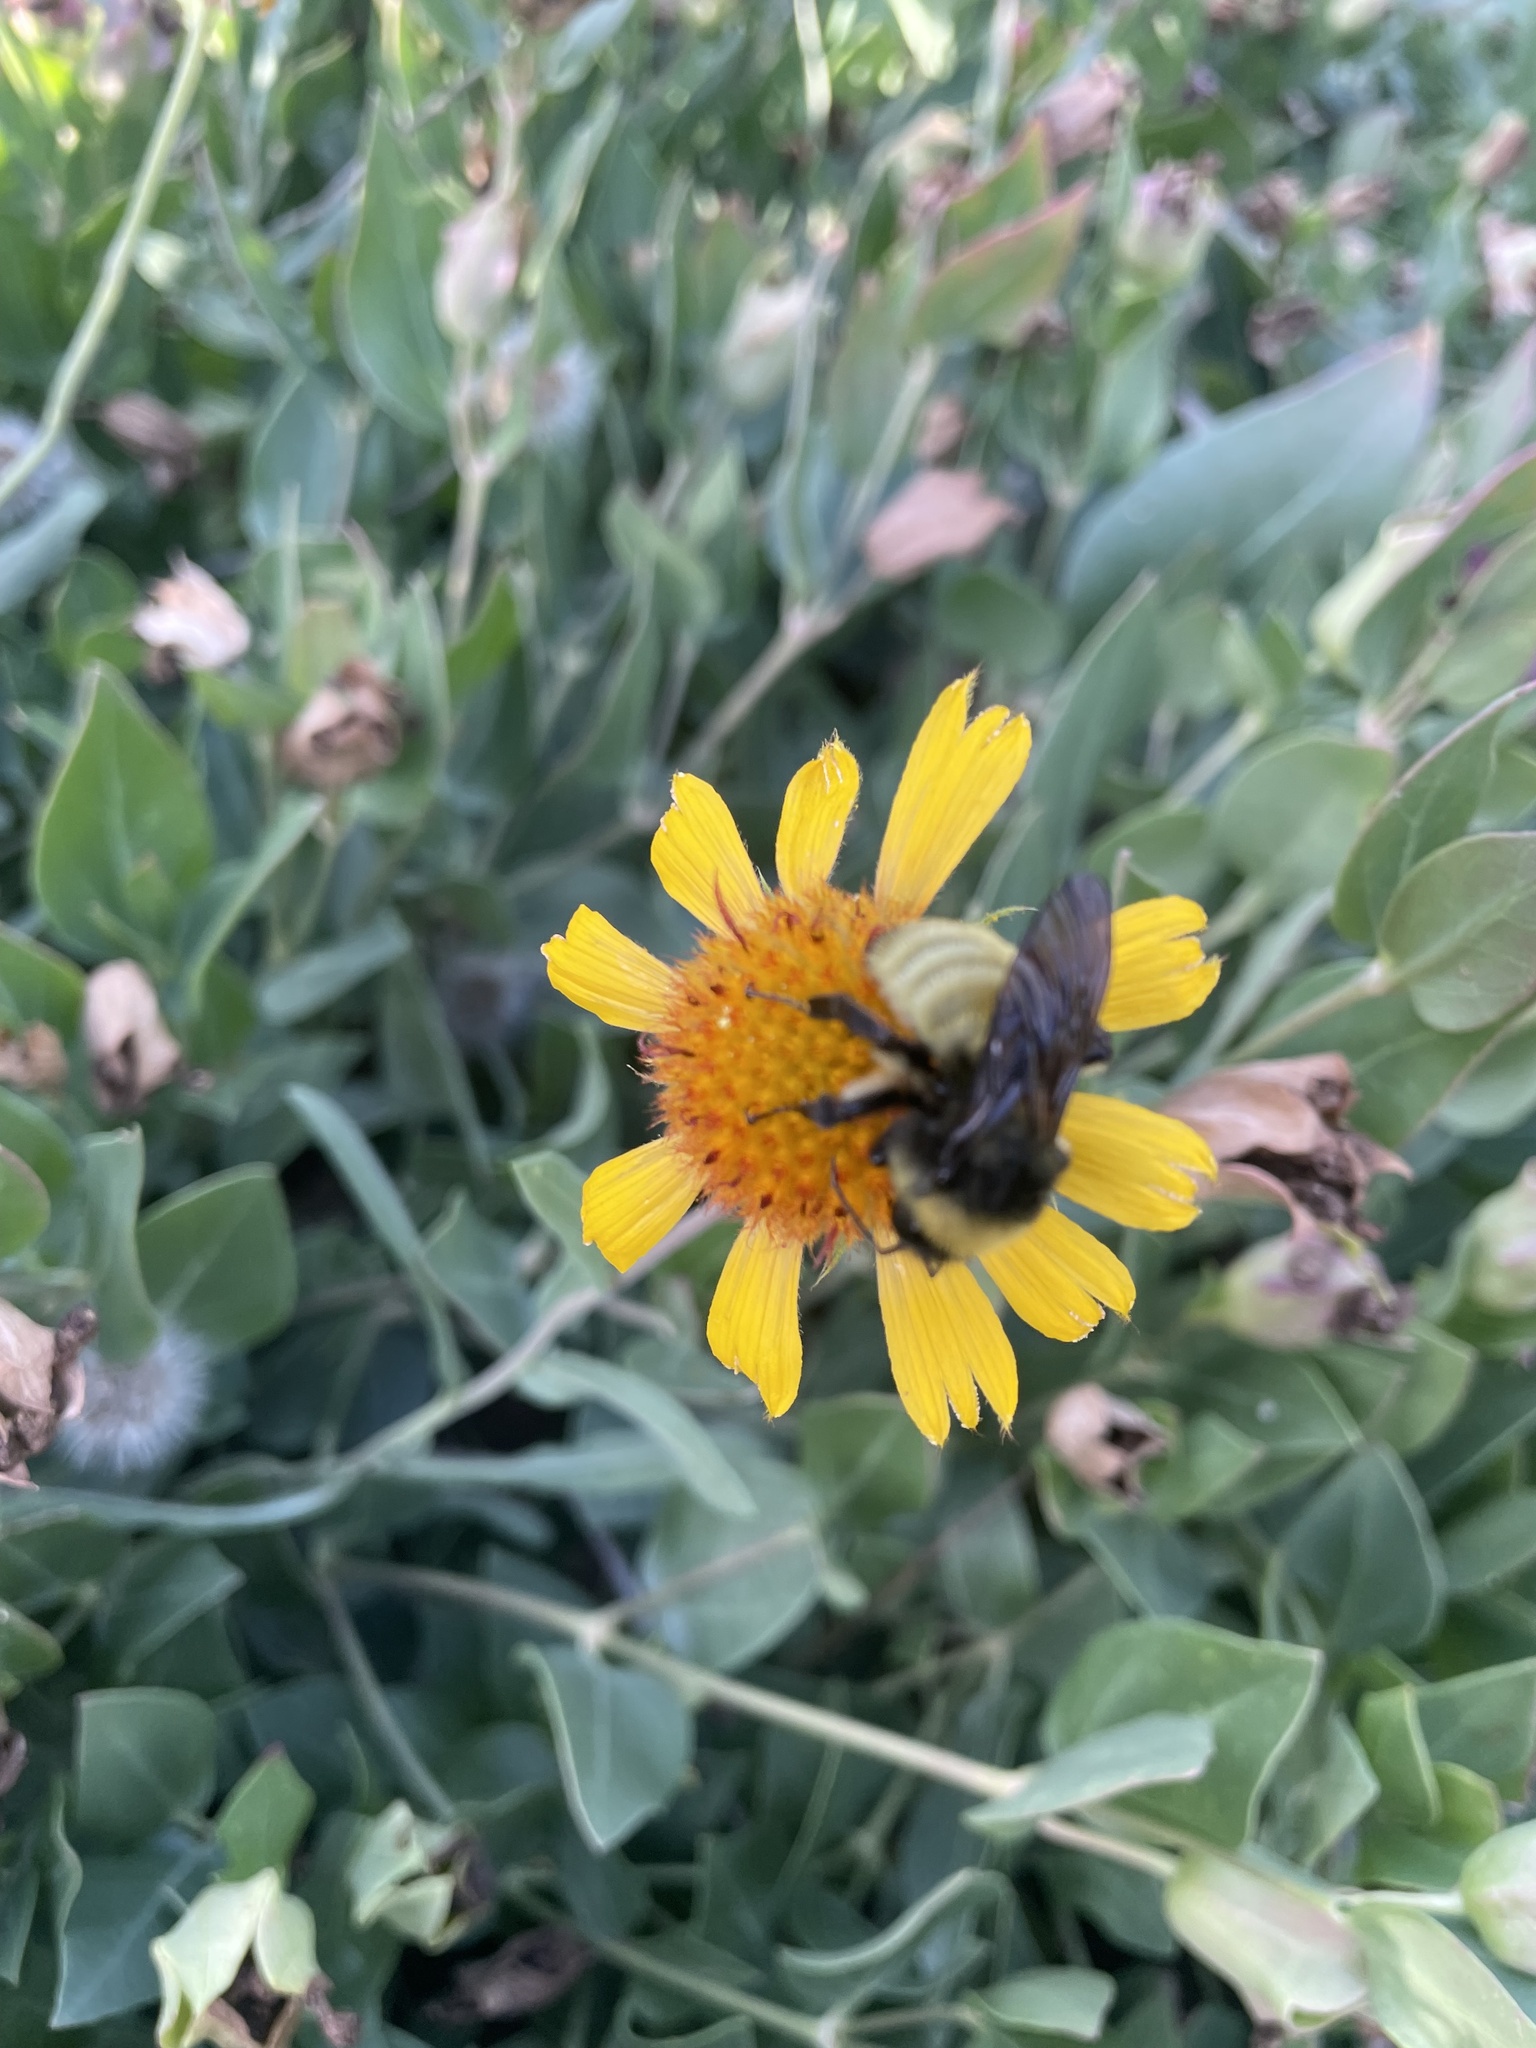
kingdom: Animalia
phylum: Arthropoda
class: Insecta
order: Hymenoptera
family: Apidae
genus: Bombus
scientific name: Bombus pensylvanicus
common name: Bumble bee
